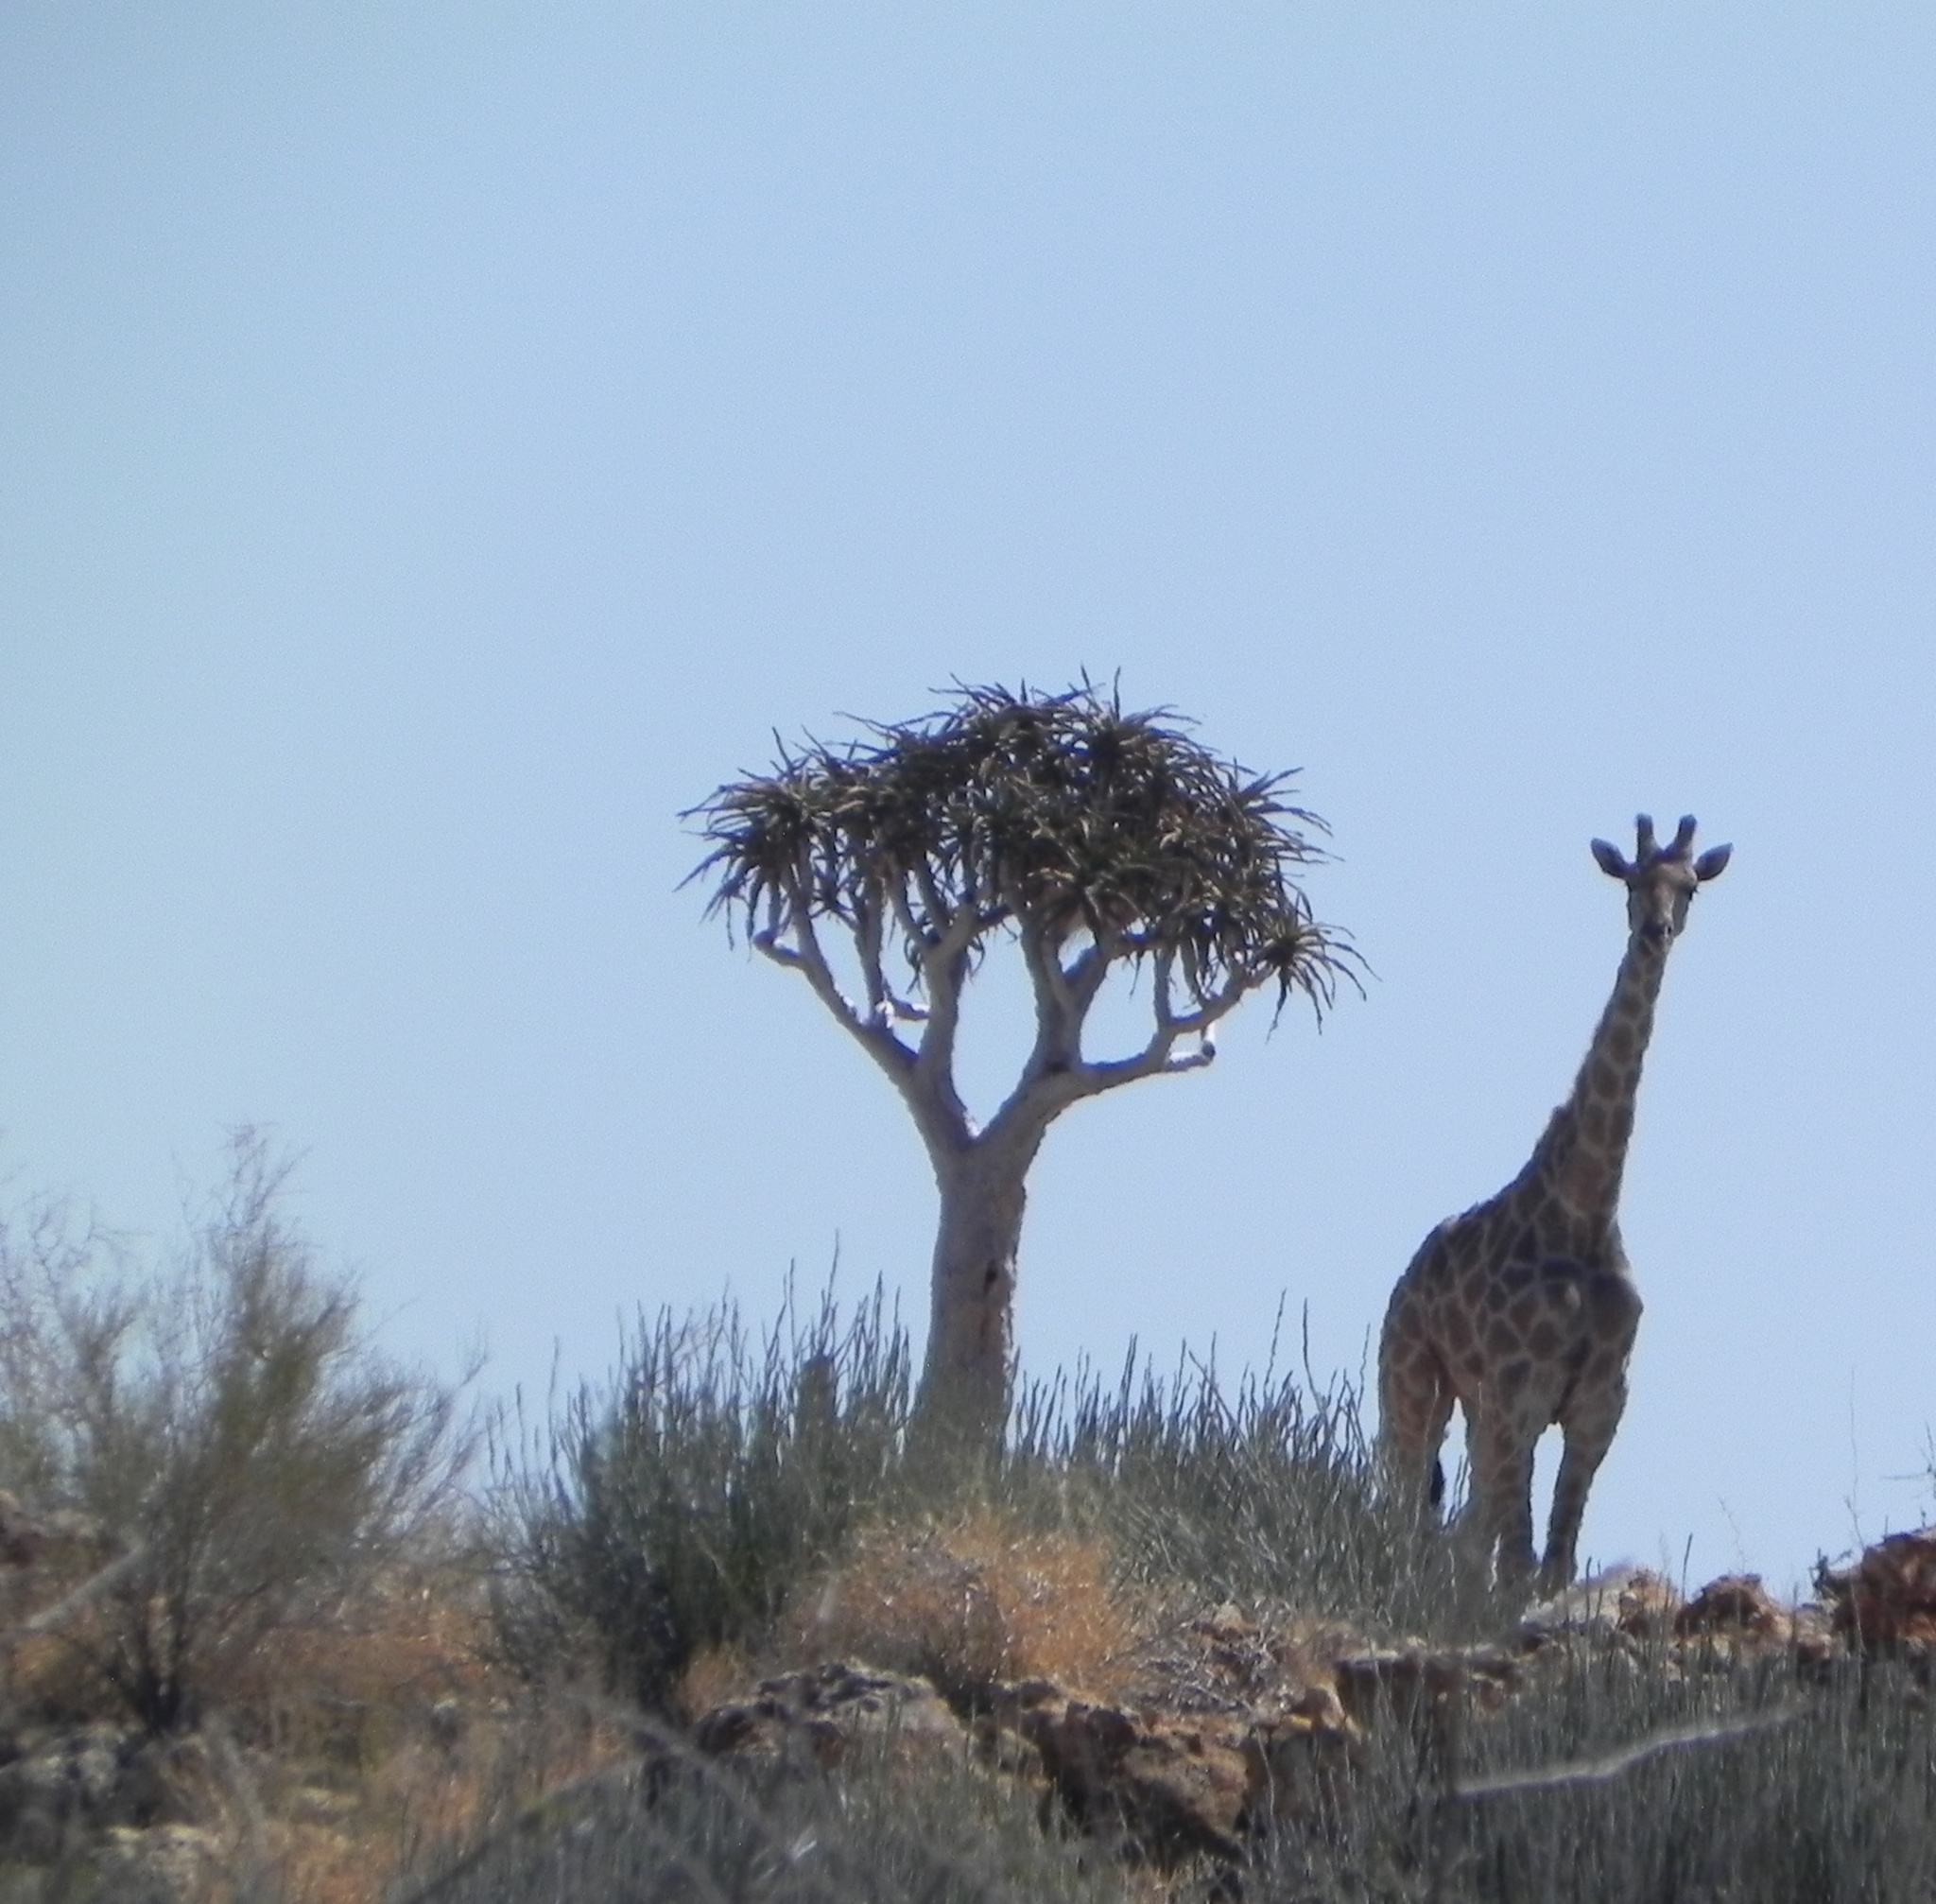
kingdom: Plantae
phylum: Tracheophyta
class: Liliopsida
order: Asparagales
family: Asphodelaceae
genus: Aloidendron
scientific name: Aloidendron dichotomum
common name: Quiver tree
